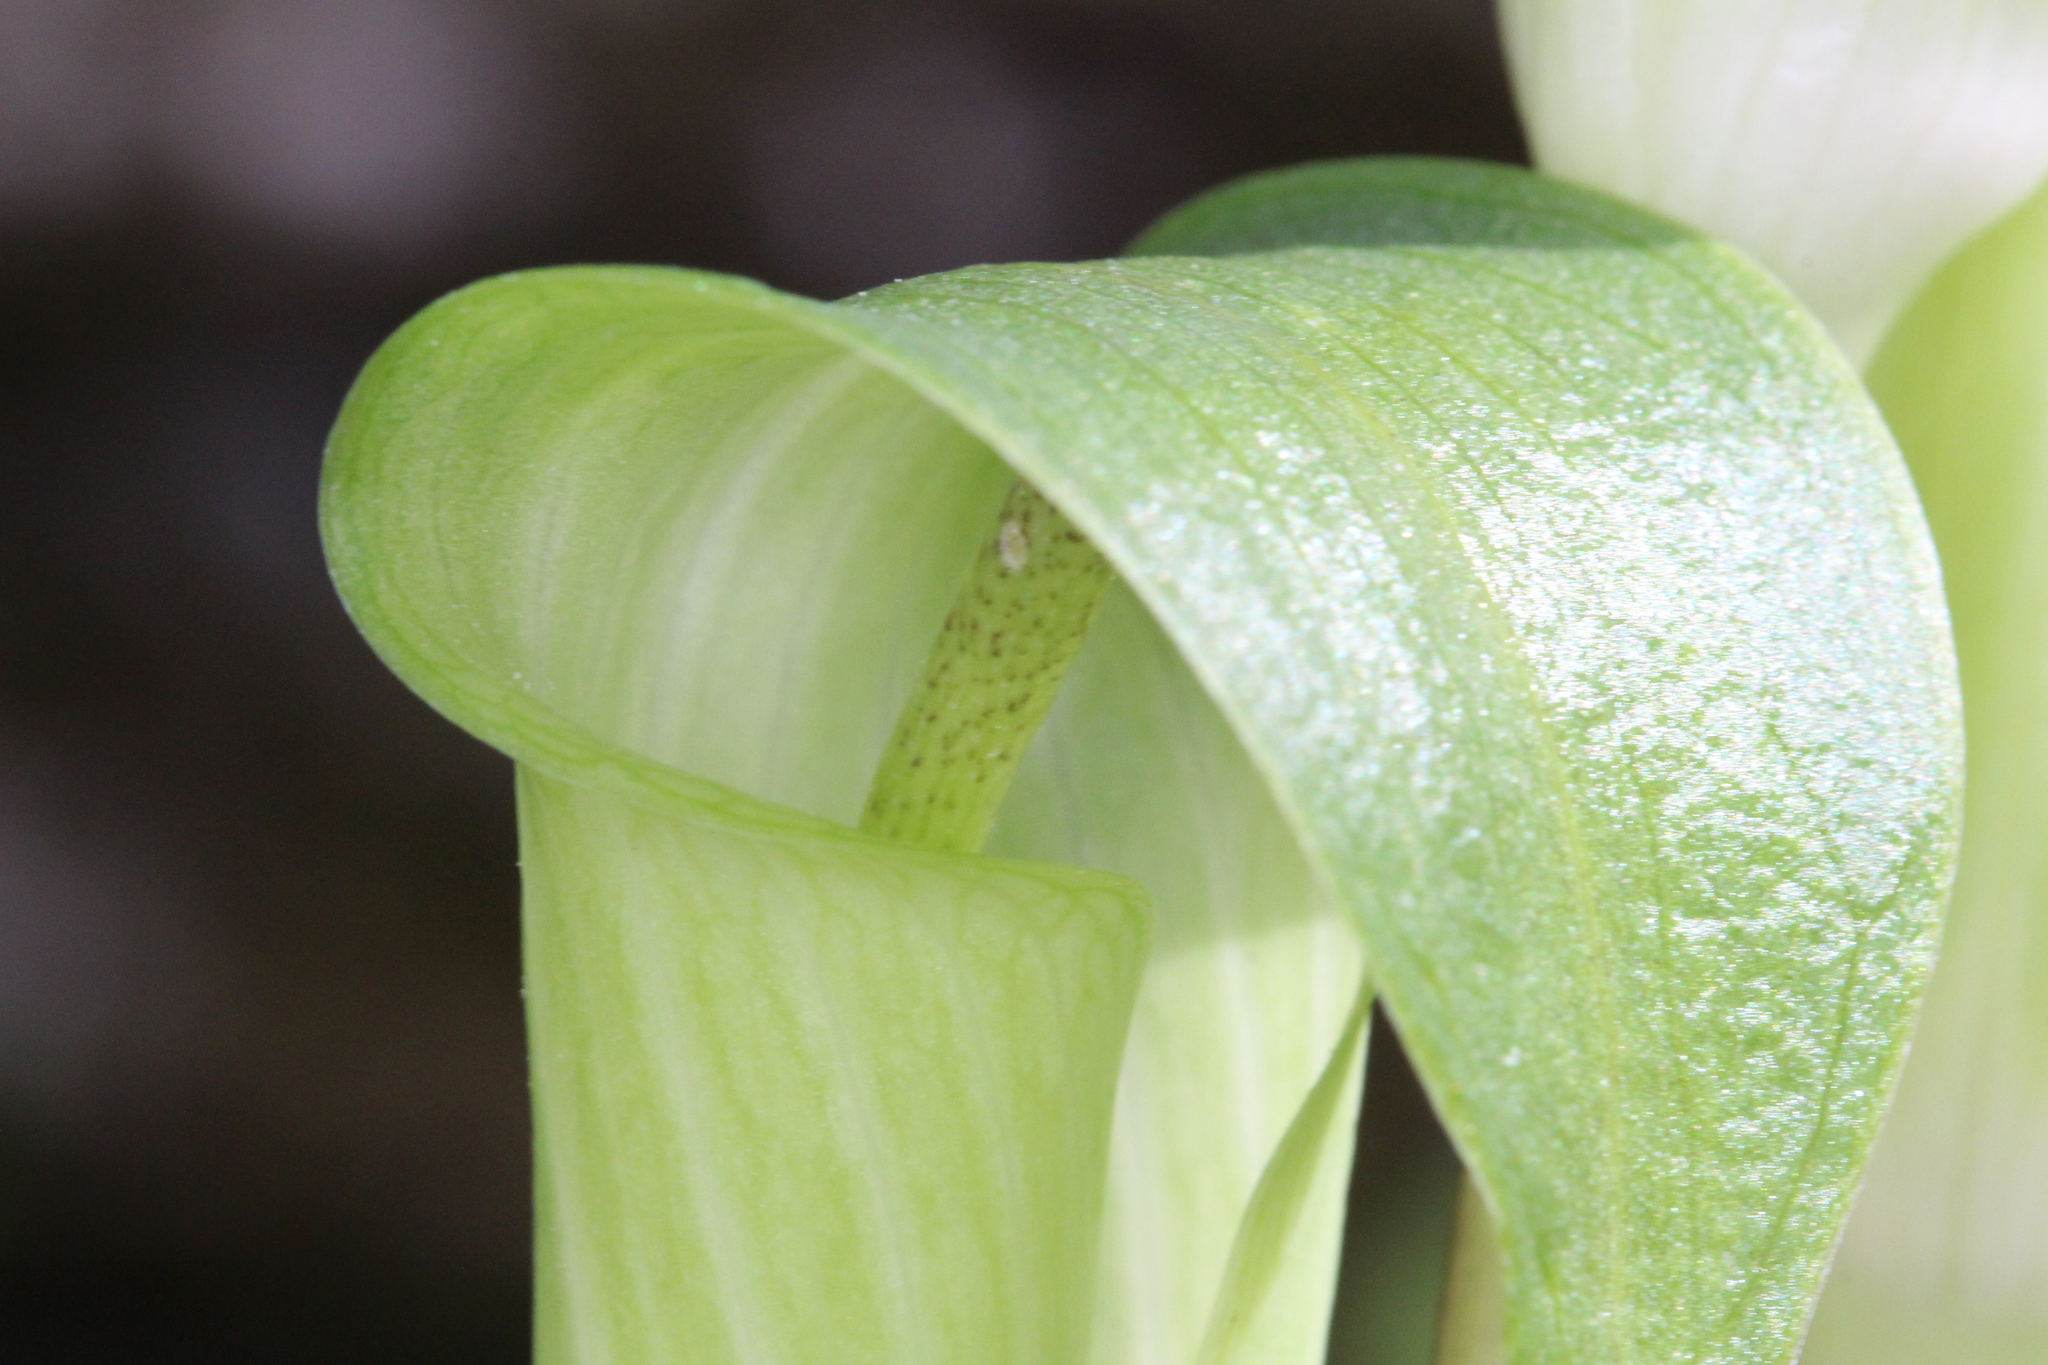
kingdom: Plantae
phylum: Tracheophyta
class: Liliopsida
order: Alismatales
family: Araceae
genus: Arisaema
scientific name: Arisaema quinatum
